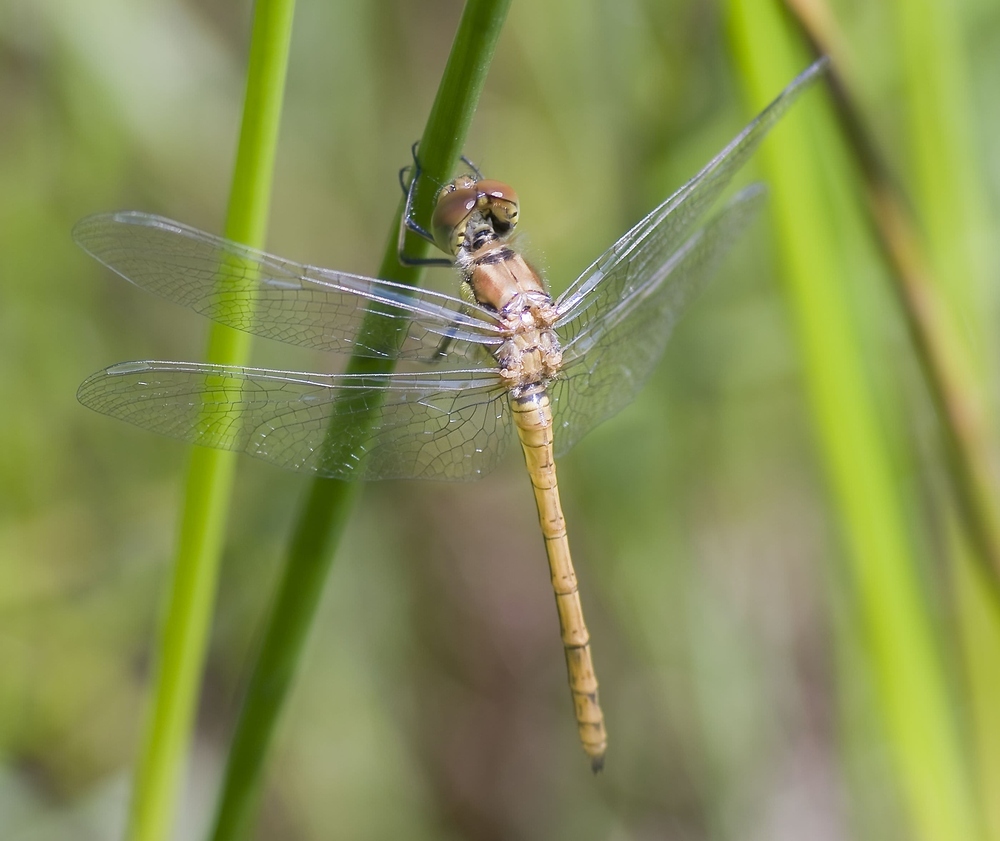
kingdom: Animalia
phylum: Arthropoda
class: Insecta
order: Odonata
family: Libellulidae
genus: Sympetrum
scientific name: Sympetrum striolatum
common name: Common darter
